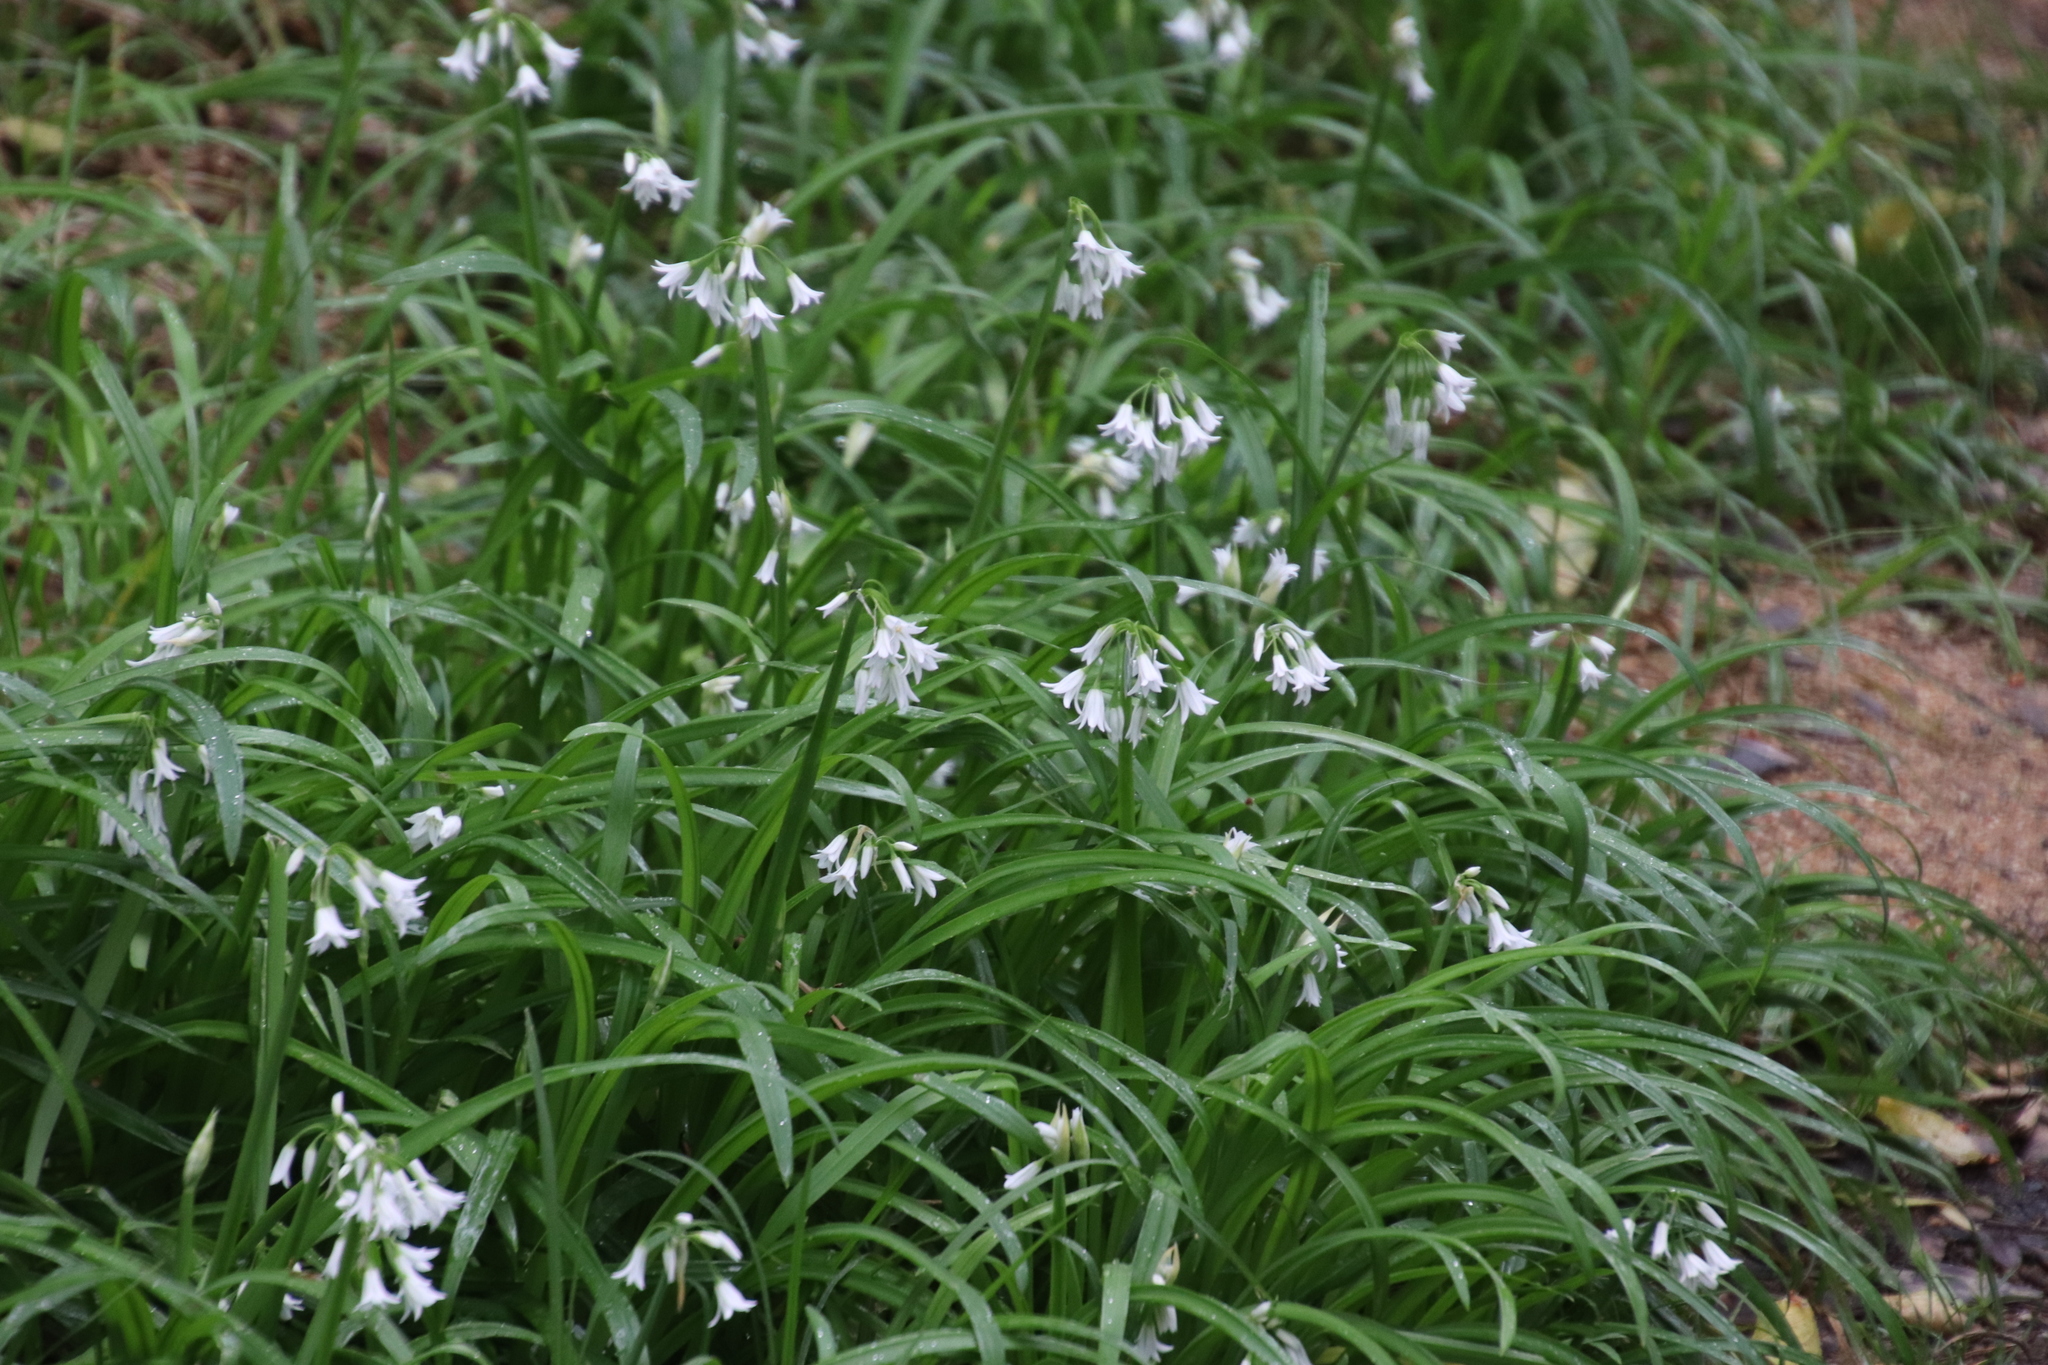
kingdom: Plantae
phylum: Tracheophyta
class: Liliopsida
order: Asparagales
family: Amaryllidaceae
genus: Allium
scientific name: Allium triquetrum
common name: Three-cornered garlic
